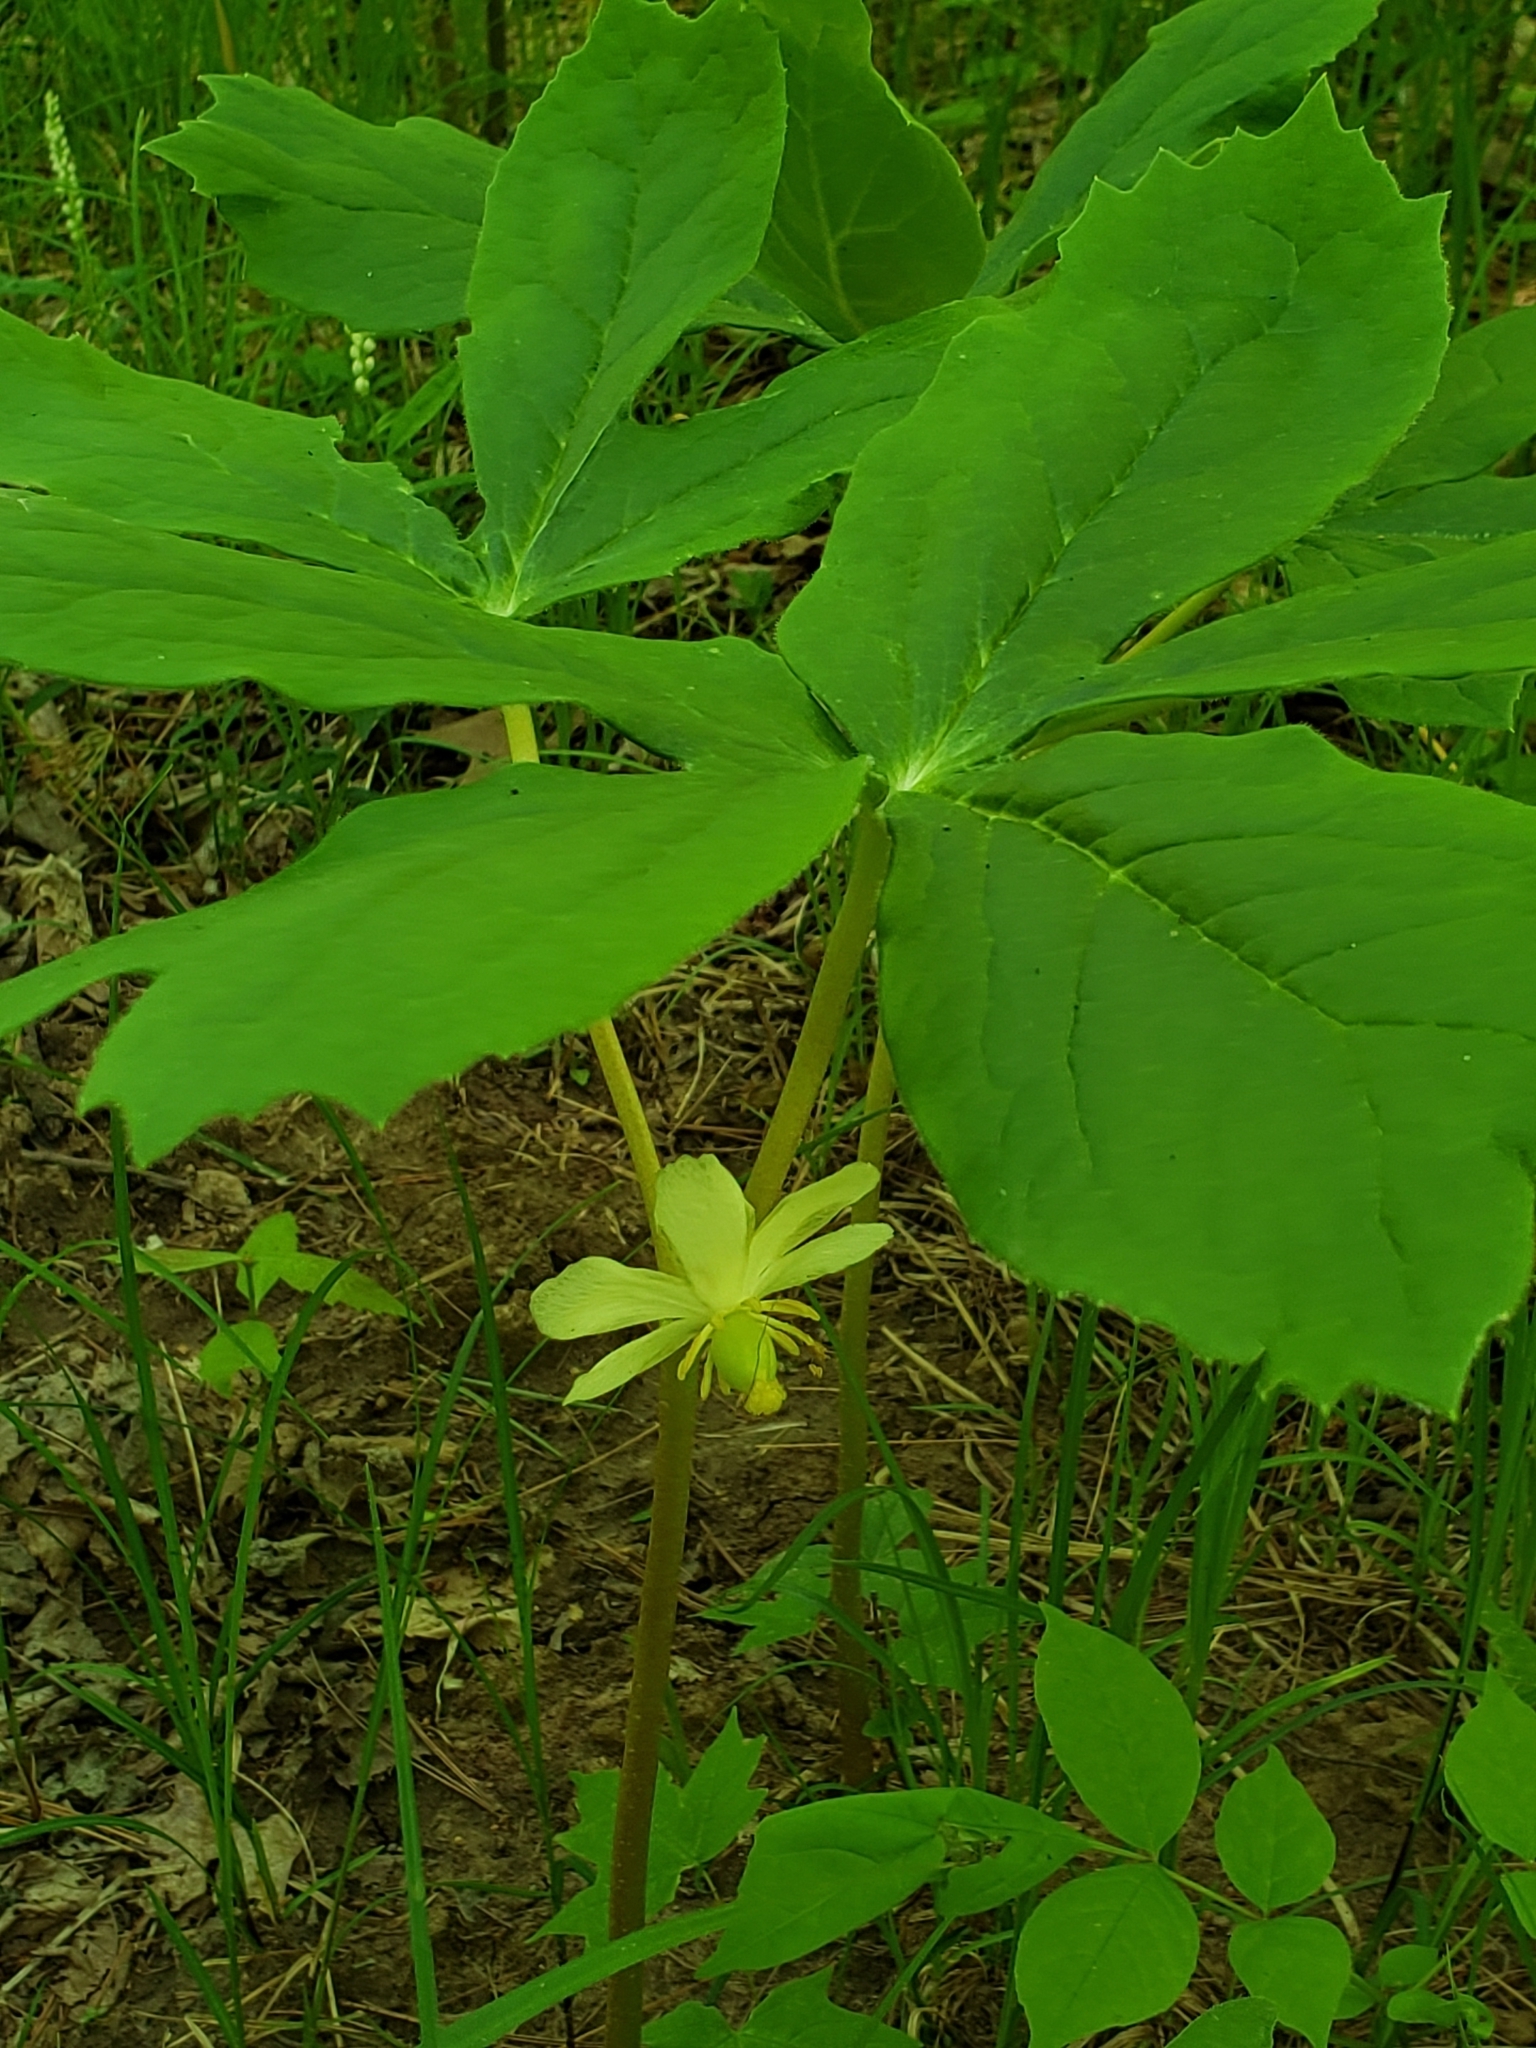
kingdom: Plantae
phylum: Tracheophyta
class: Magnoliopsida
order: Ranunculales
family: Berberidaceae
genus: Podophyllum
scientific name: Podophyllum peltatum
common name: Wild mandrake
